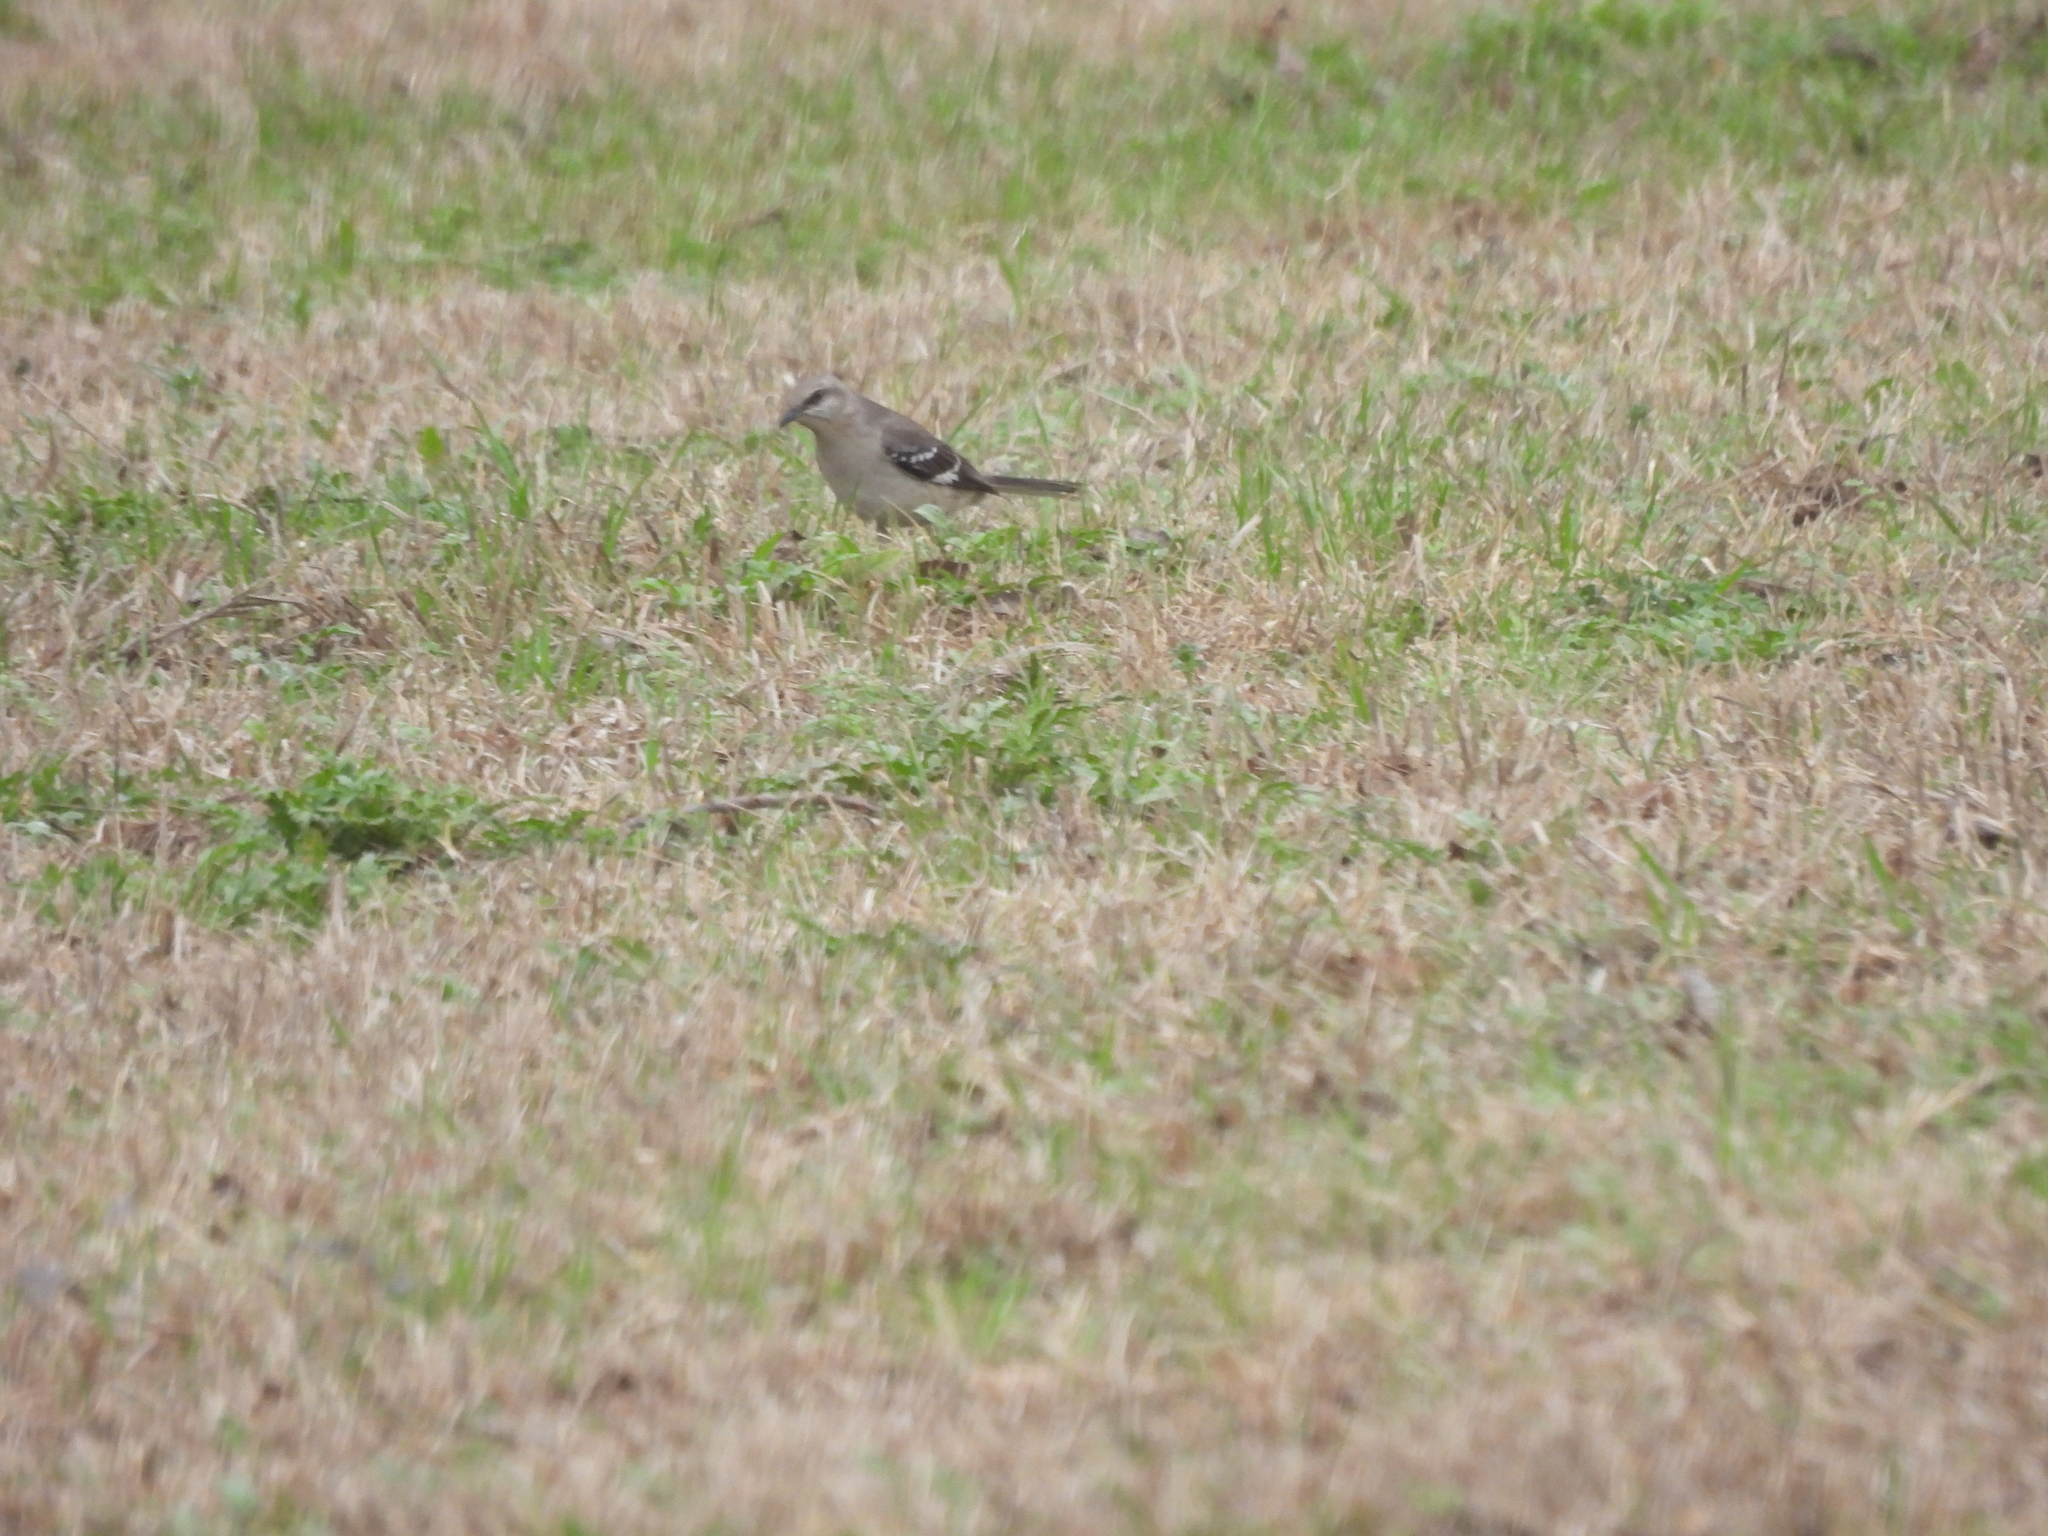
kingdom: Animalia
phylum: Chordata
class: Aves
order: Passeriformes
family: Mimidae
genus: Mimus
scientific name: Mimus polyglottos
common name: Northern mockingbird
